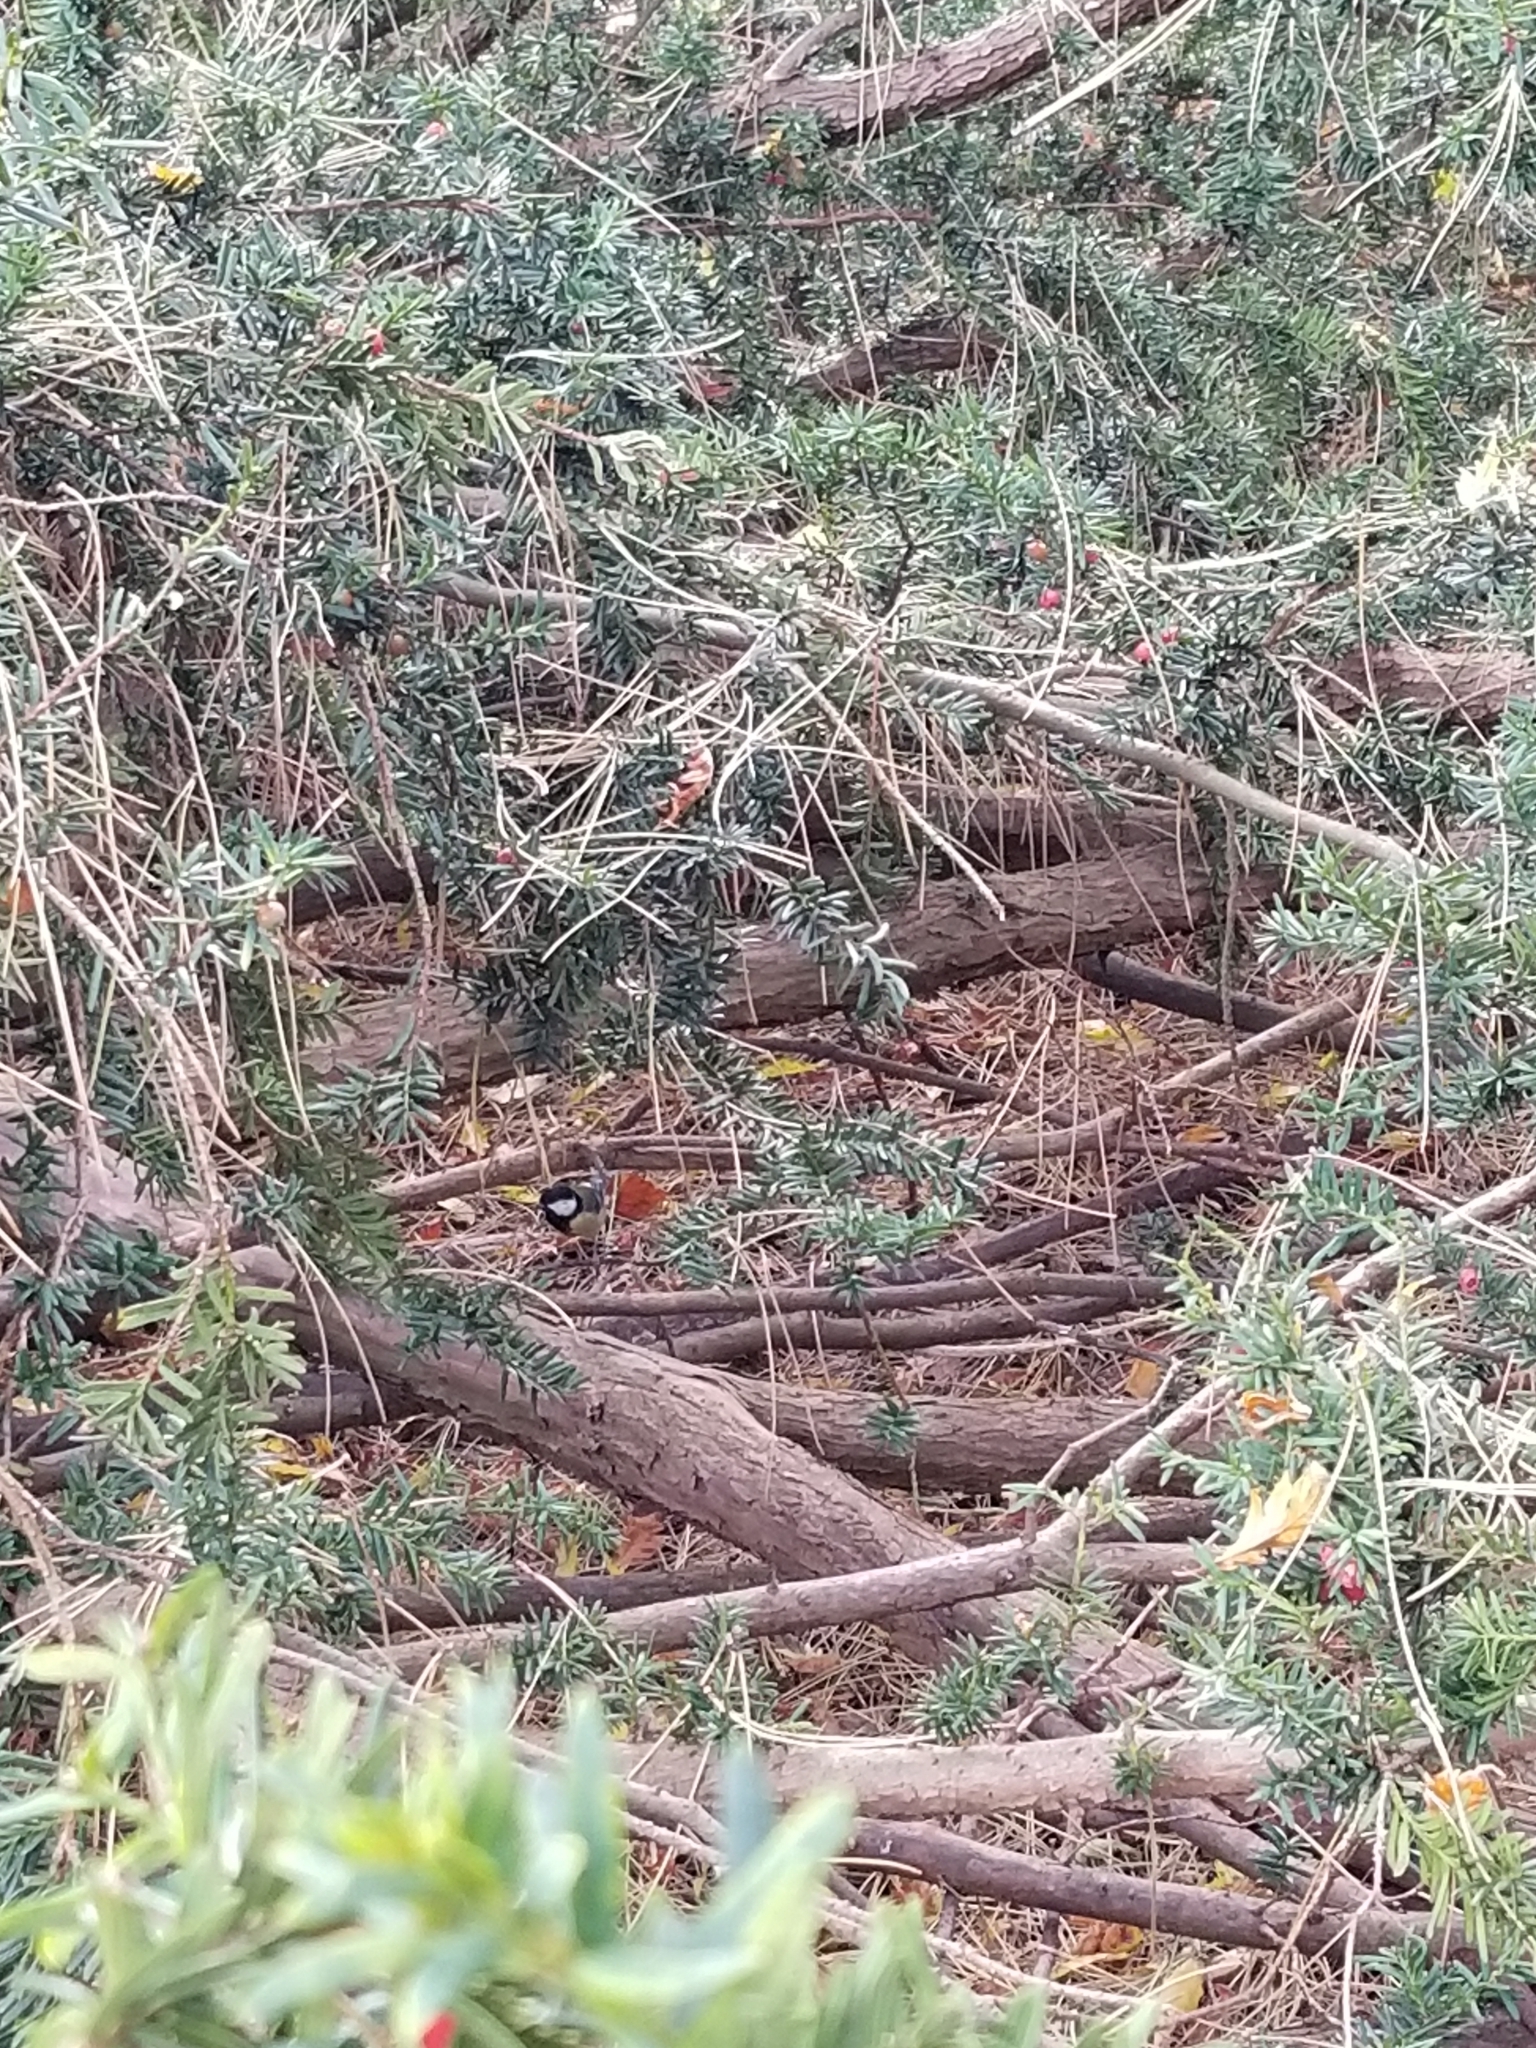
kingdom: Animalia
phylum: Chordata
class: Aves
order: Passeriformes
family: Paridae
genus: Parus
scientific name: Parus major
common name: Great tit
